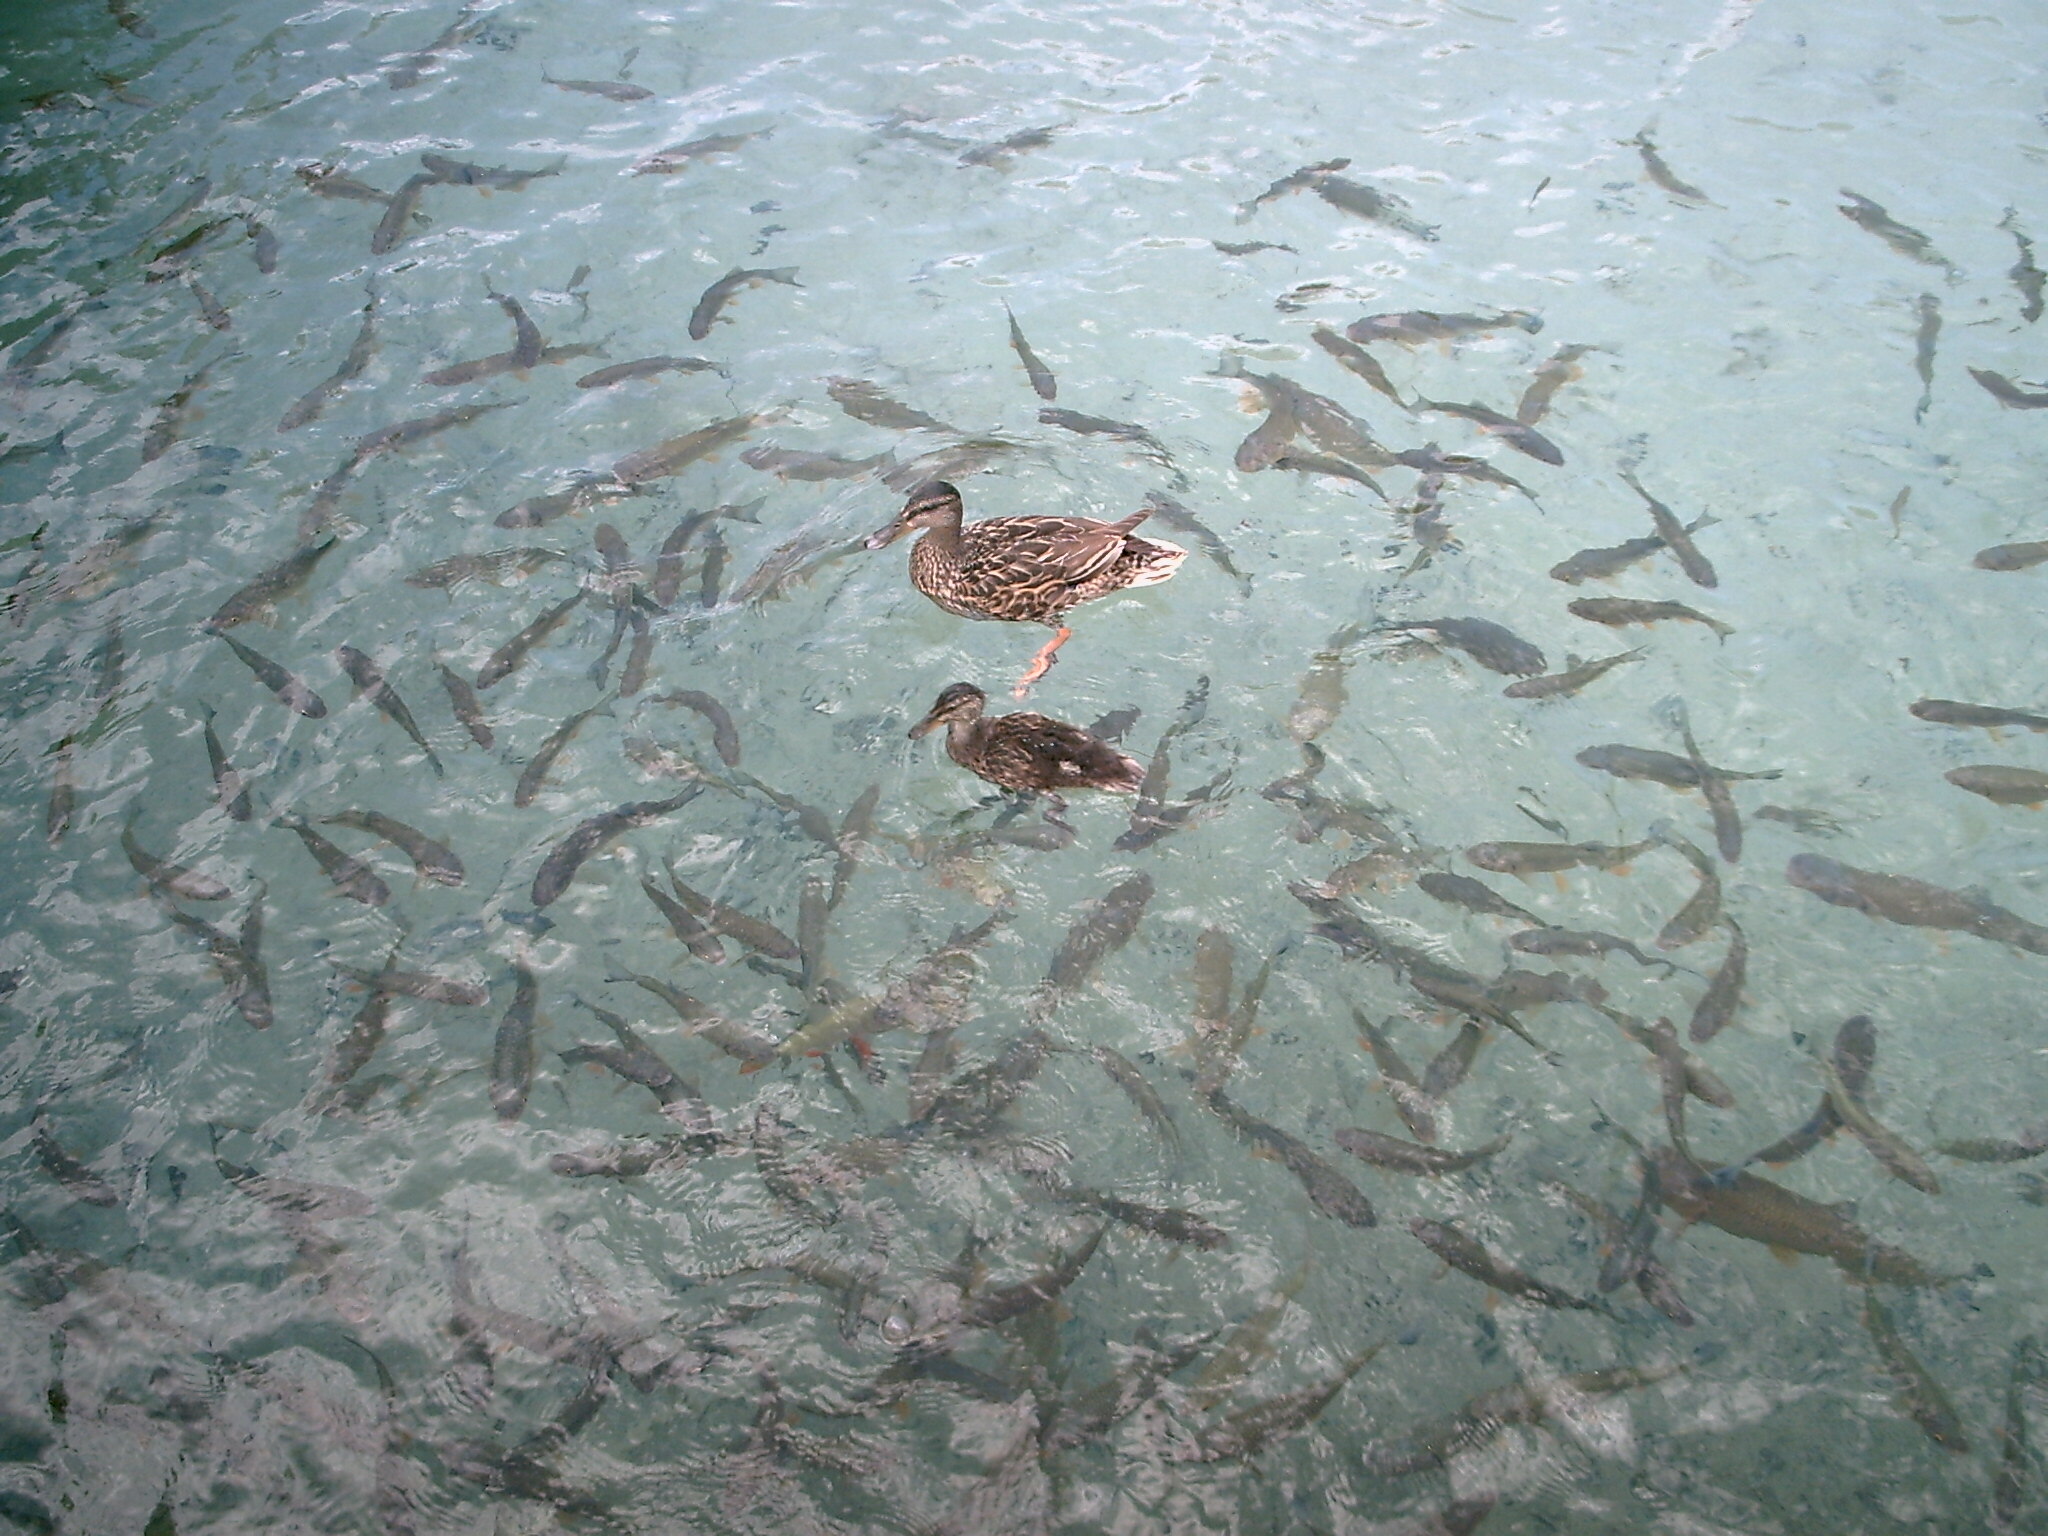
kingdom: Animalia
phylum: Chordata
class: Aves
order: Anseriformes
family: Anatidae
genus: Anas
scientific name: Anas platyrhynchos
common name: Mallard
